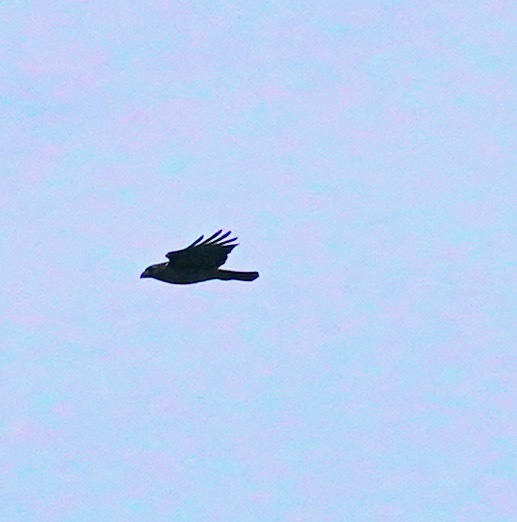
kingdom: Animalia
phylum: Chordata
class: Aves
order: Accipitriformes
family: Accipitridae
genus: Buteo
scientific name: Buteo jamaicensis
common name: Red-tailed hawk
